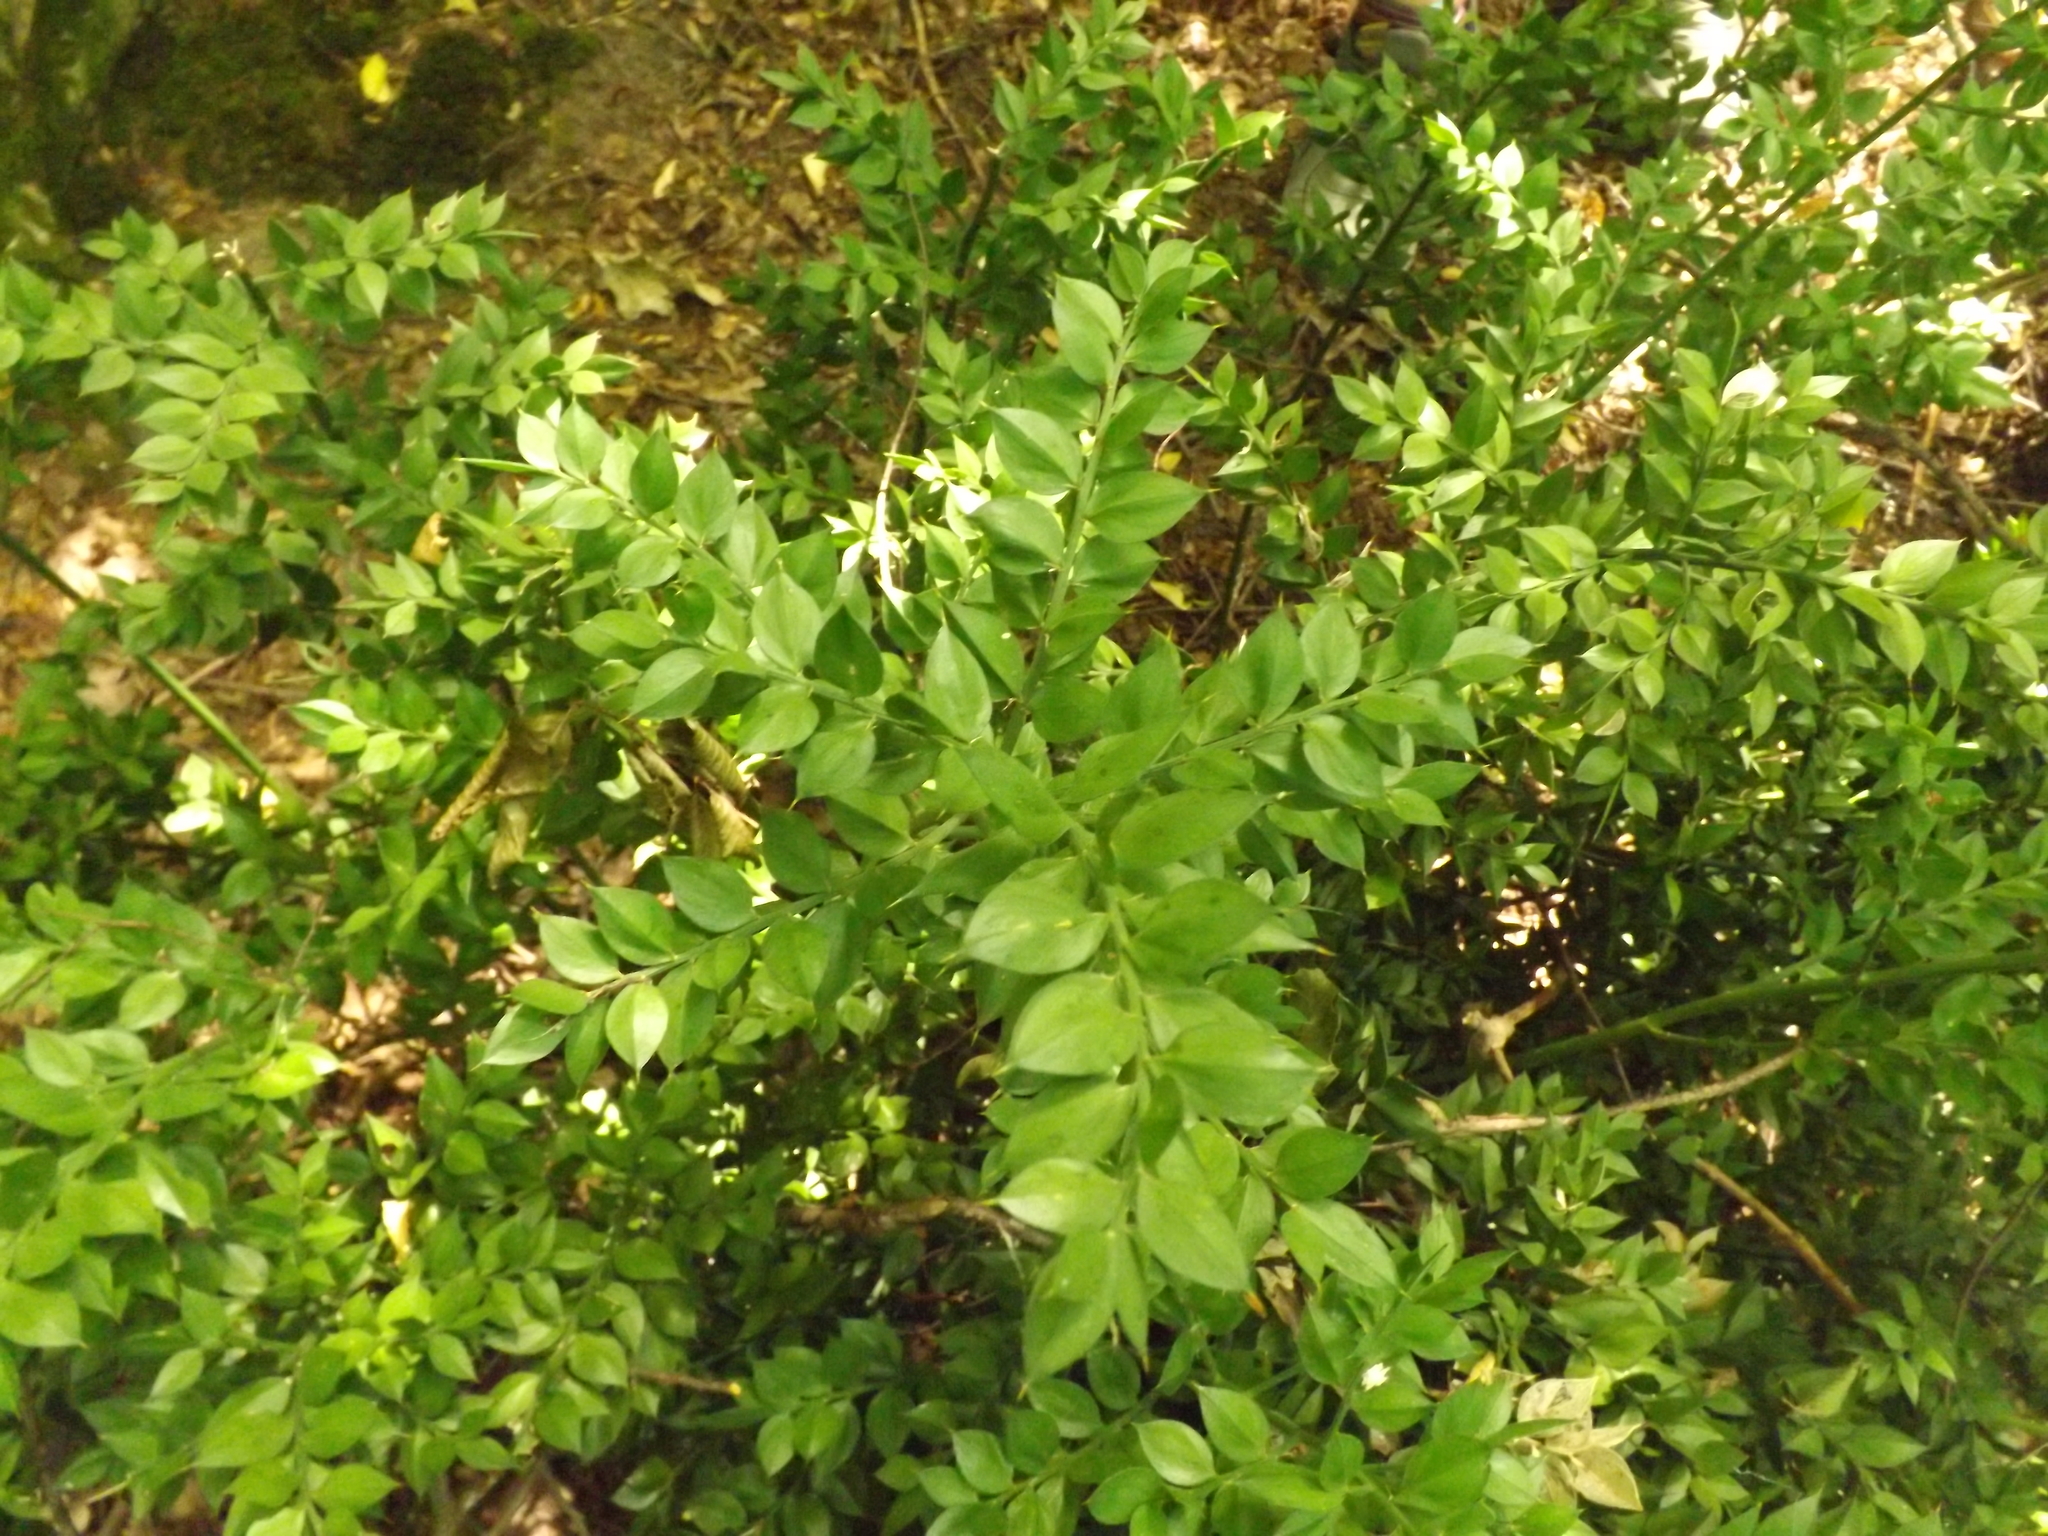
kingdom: Plantae
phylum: Tracheophyta
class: Liliopsida
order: Asparagales
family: Asparagaceae
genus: Ruscus
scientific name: Ruscus aculeatus
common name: Butcher's-broom
